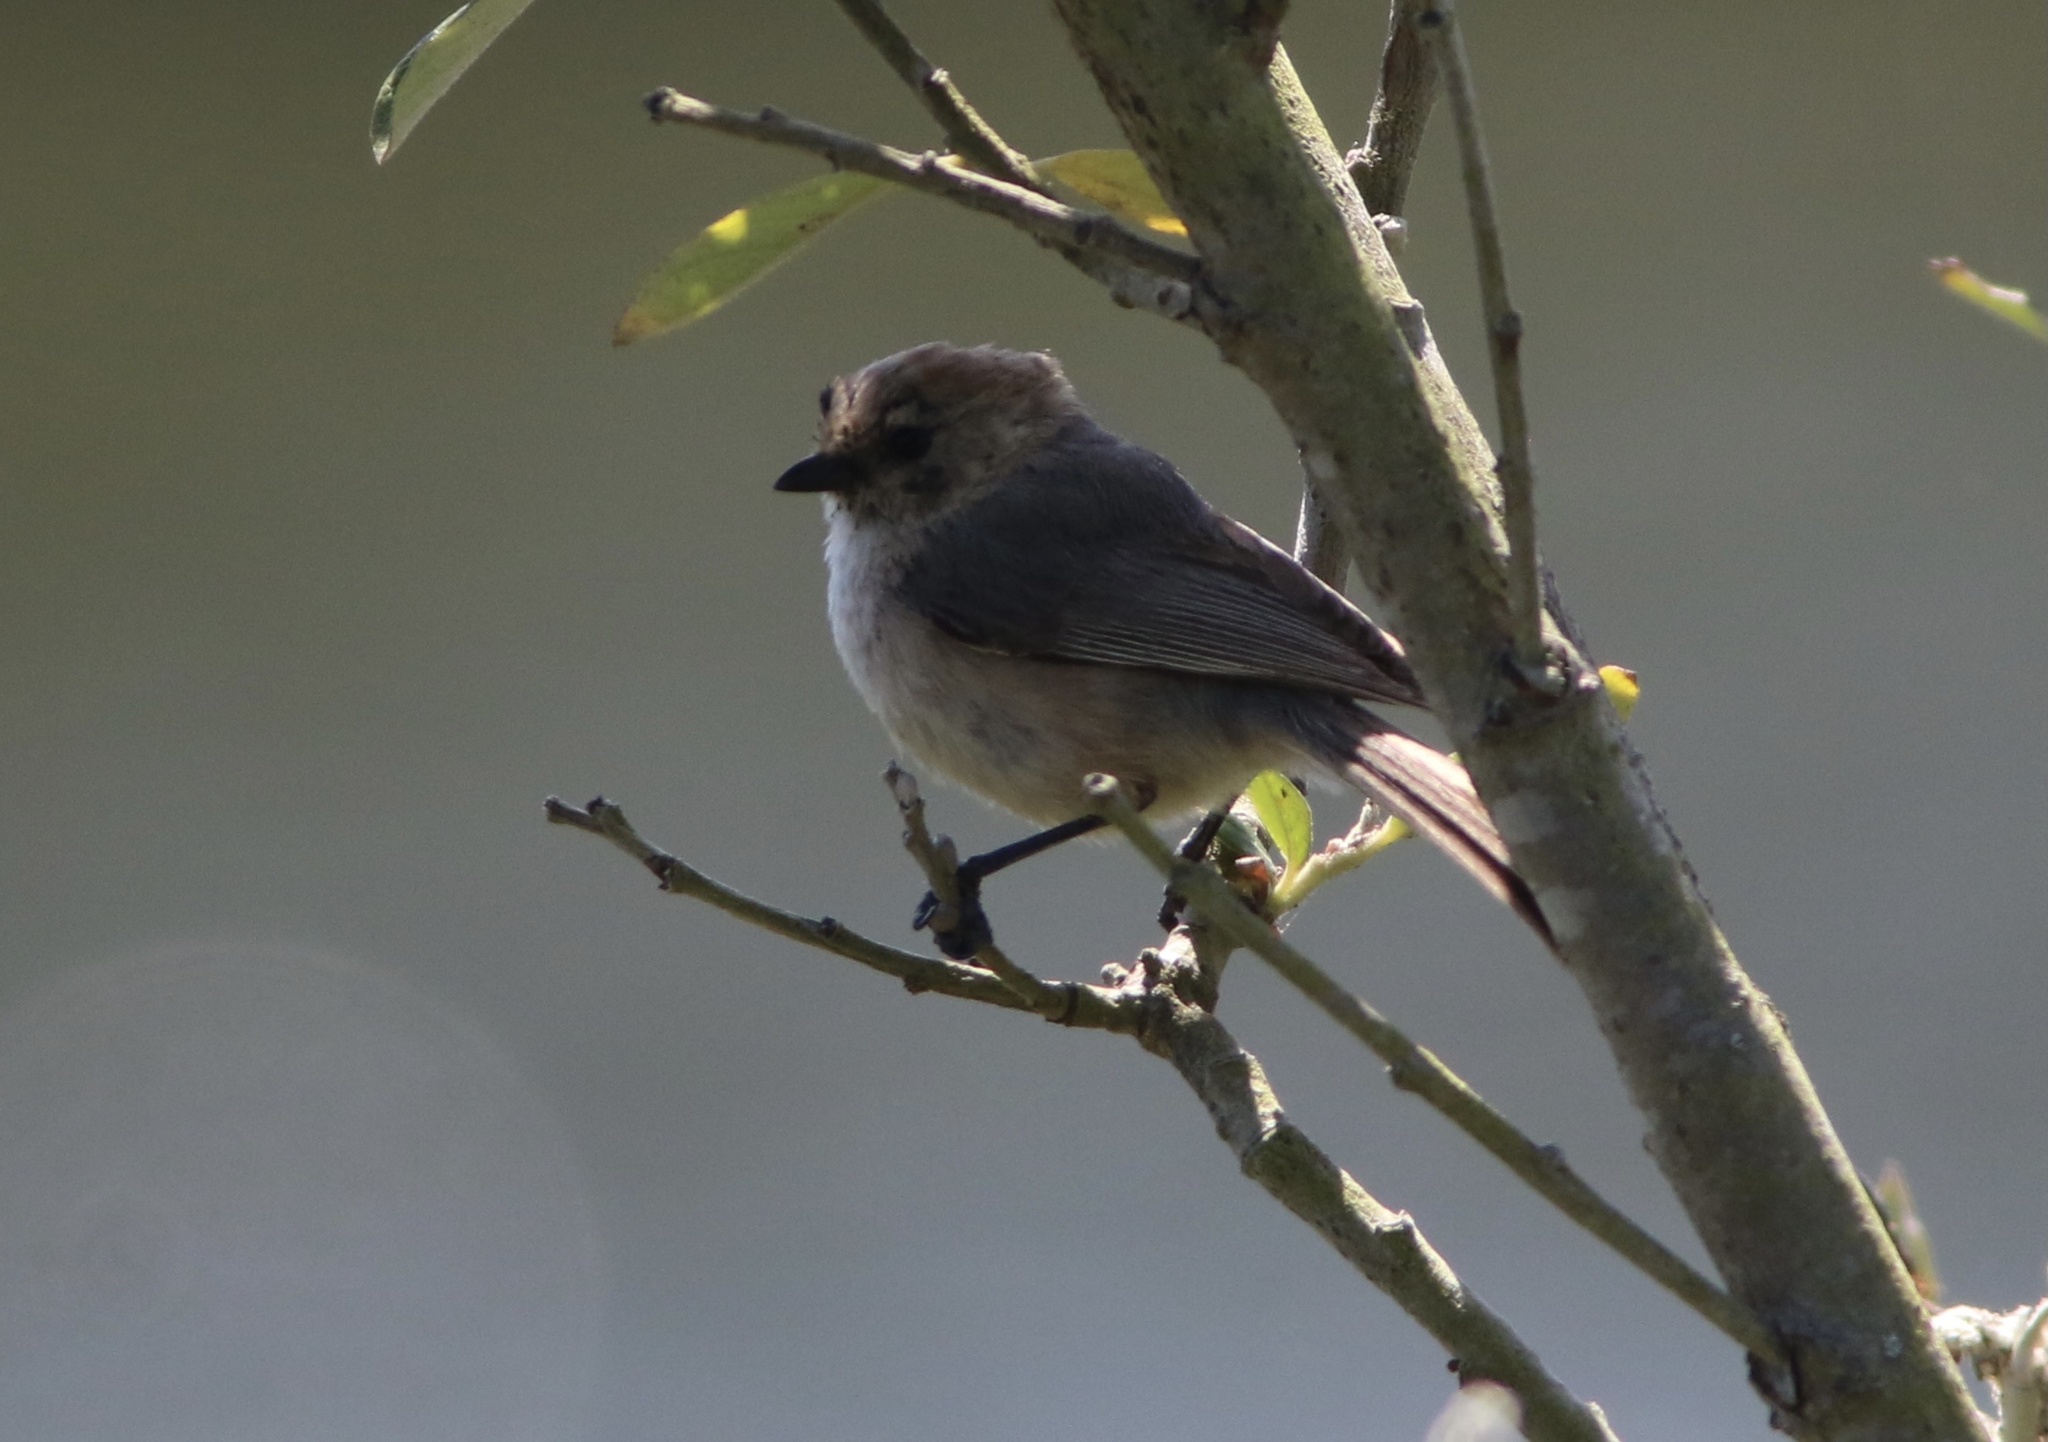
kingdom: Animalia
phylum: Chordata
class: Aves
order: Passeriformes
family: Aegithalidae
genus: Psaltriparus
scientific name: Psaltriparus minimus
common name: American bushtit
